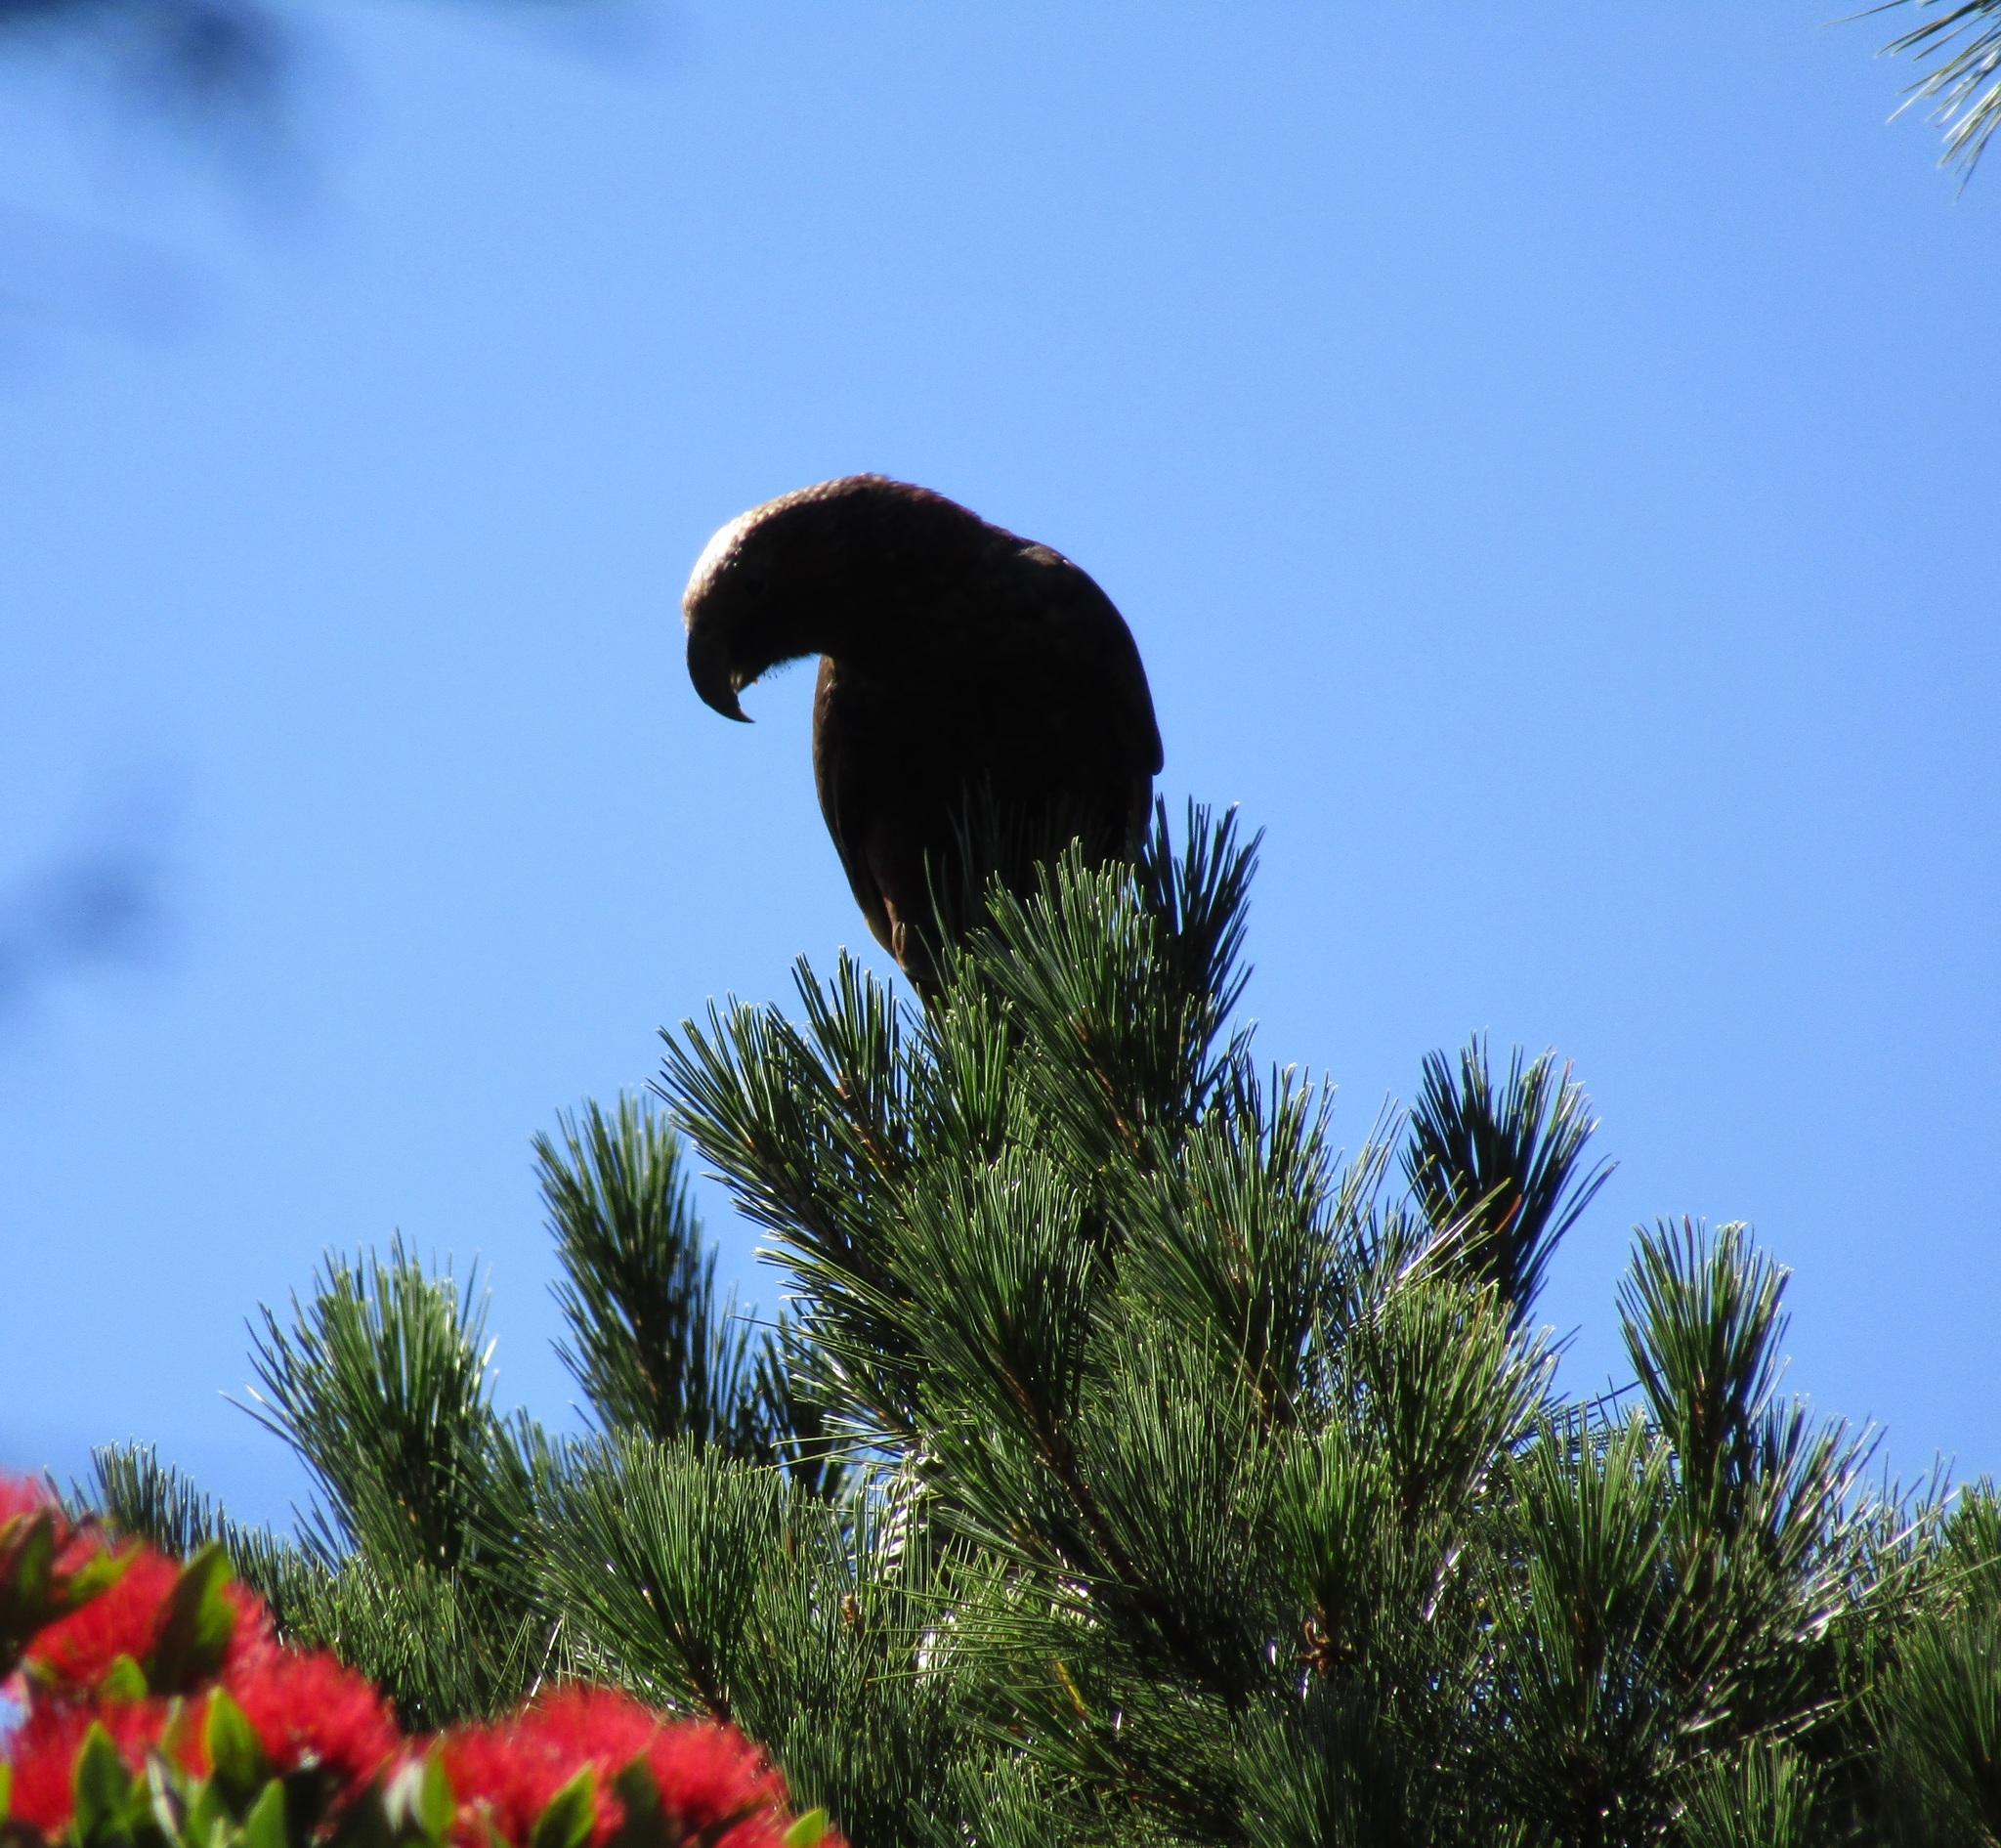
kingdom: Animalia
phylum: Chordata
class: Aves
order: Psittaciformes
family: Psittacidae
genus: Nestor
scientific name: Nestor meridionalis
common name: New zealand kaka
